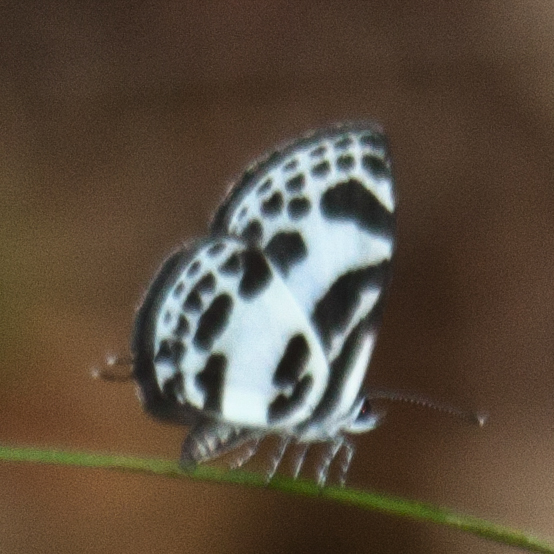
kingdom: Animalia
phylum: Arthropoda
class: Insecta
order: Lepidoptera
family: Lycaenidae
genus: Discolampa
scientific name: Discolampa ethion
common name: Banded blue pierrot
